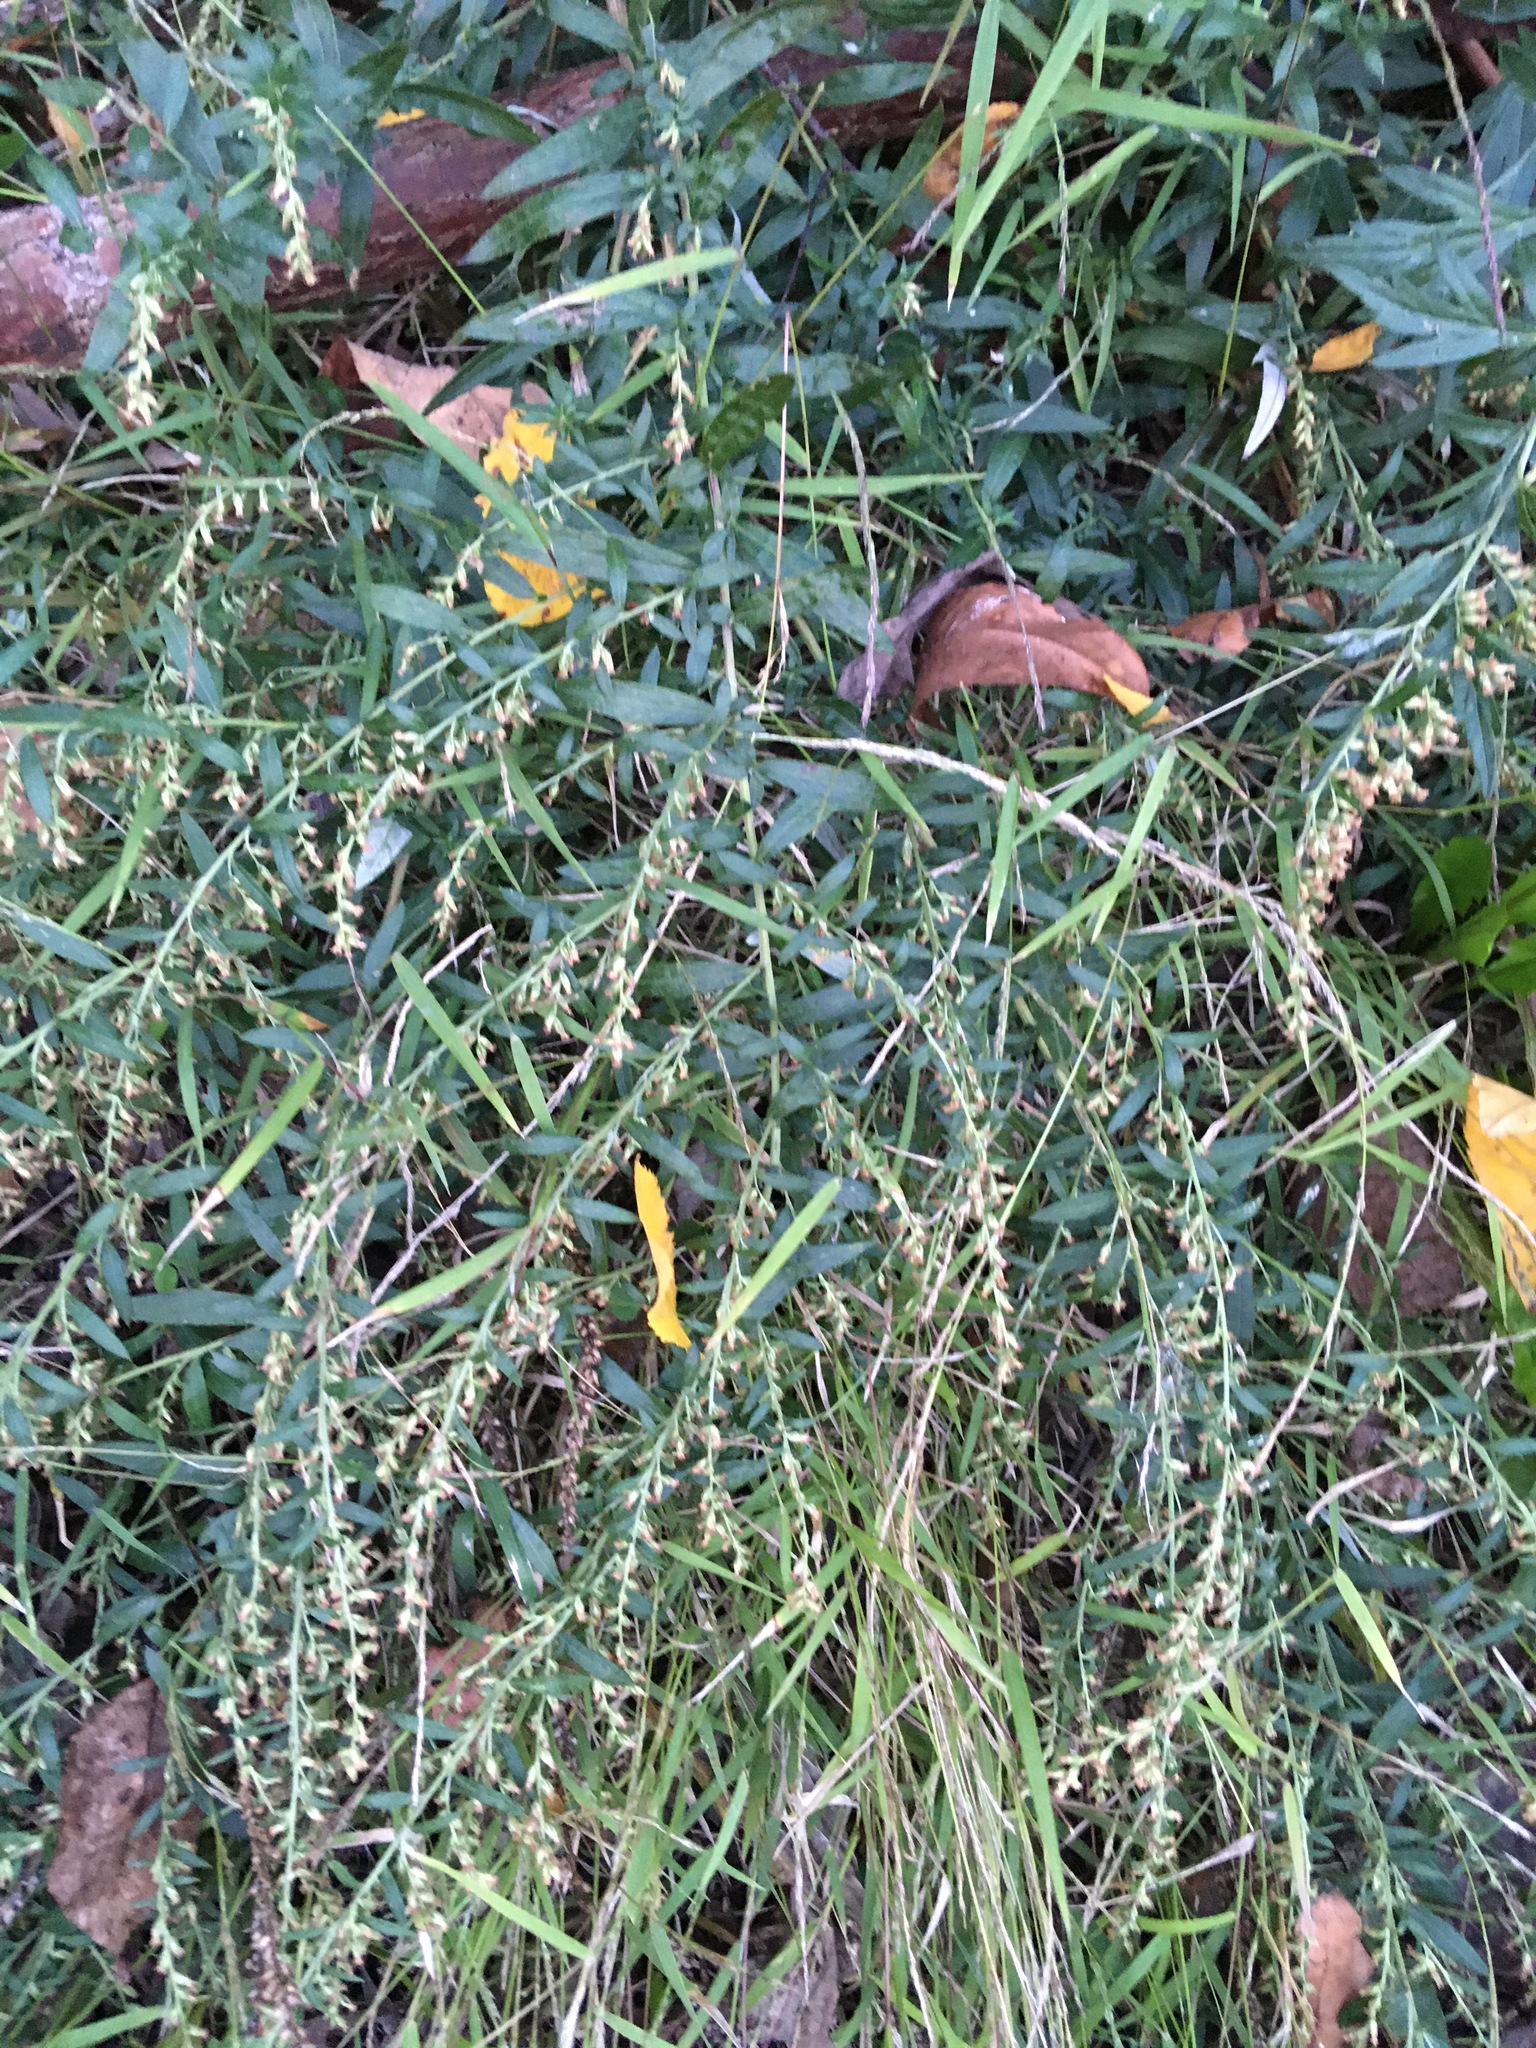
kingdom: Plantae
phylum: Tracheophyta
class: Magnoliopsida
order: Asterales
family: Asteraceae
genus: Artemisia
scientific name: Artemisia vulgaris
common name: Mugwort
